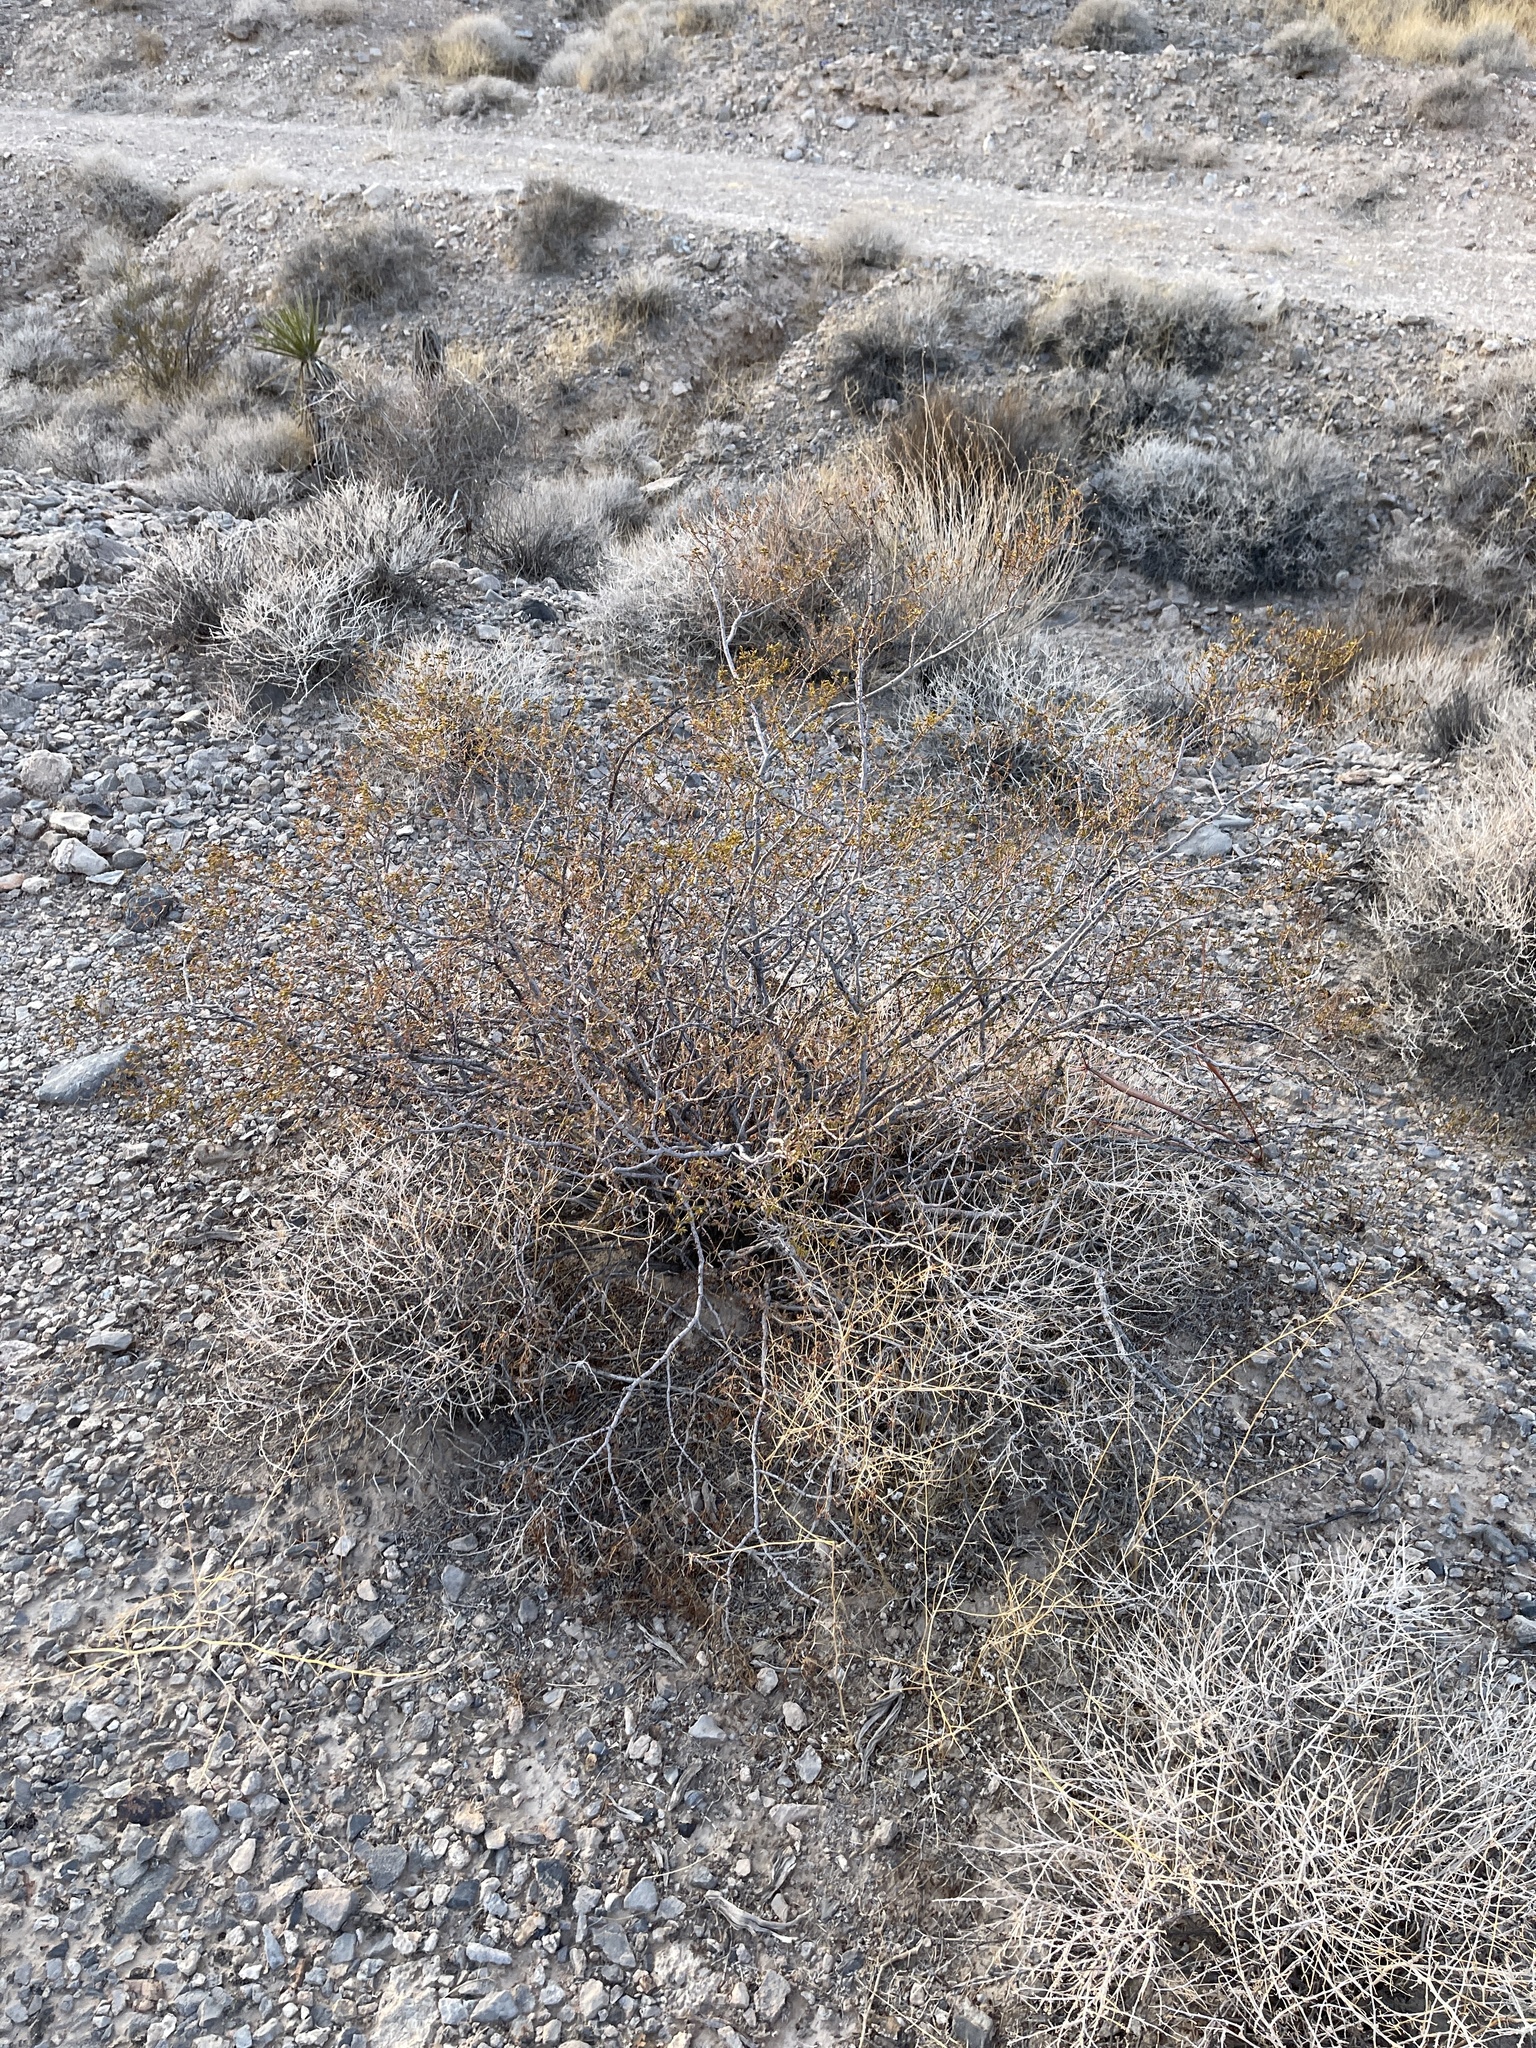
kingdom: Plantae
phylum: Tracheophyta
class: Magnoliopsida
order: Zygophyllales
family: Zygophyllaceae
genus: Larrea
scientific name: Larrea tridentata
